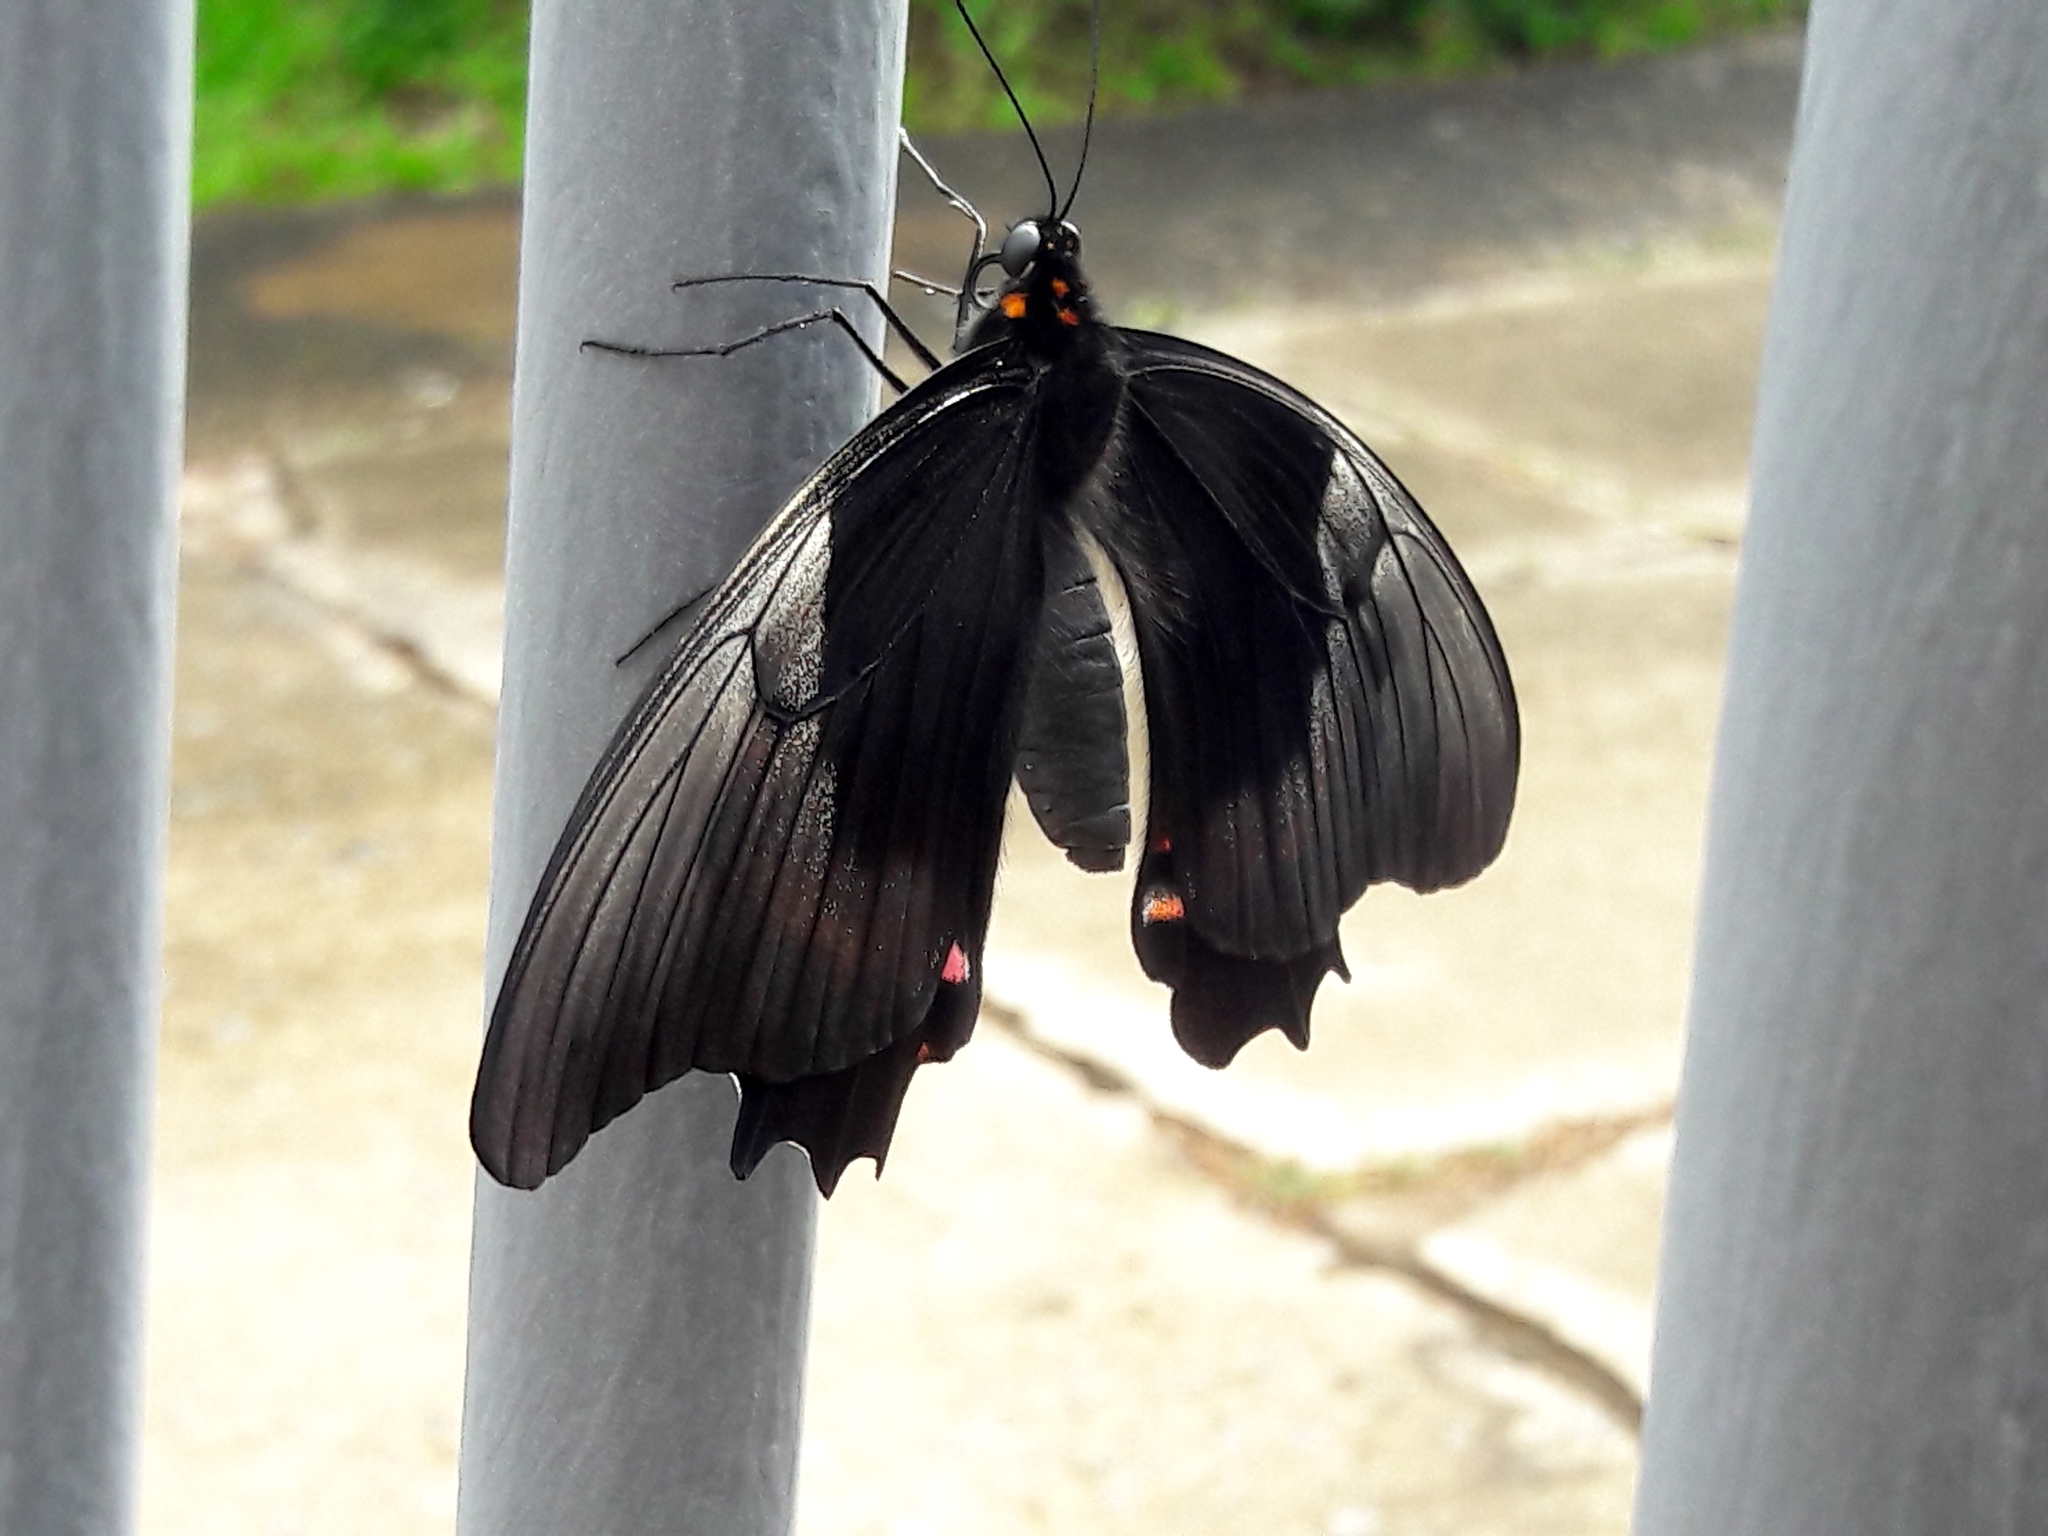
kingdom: Animalia
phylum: Arthropoda
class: Insecta
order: Lepidoptera
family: Papilionidae
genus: Papilio
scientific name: Papilio anchisiades
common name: Idaes swallowtail
